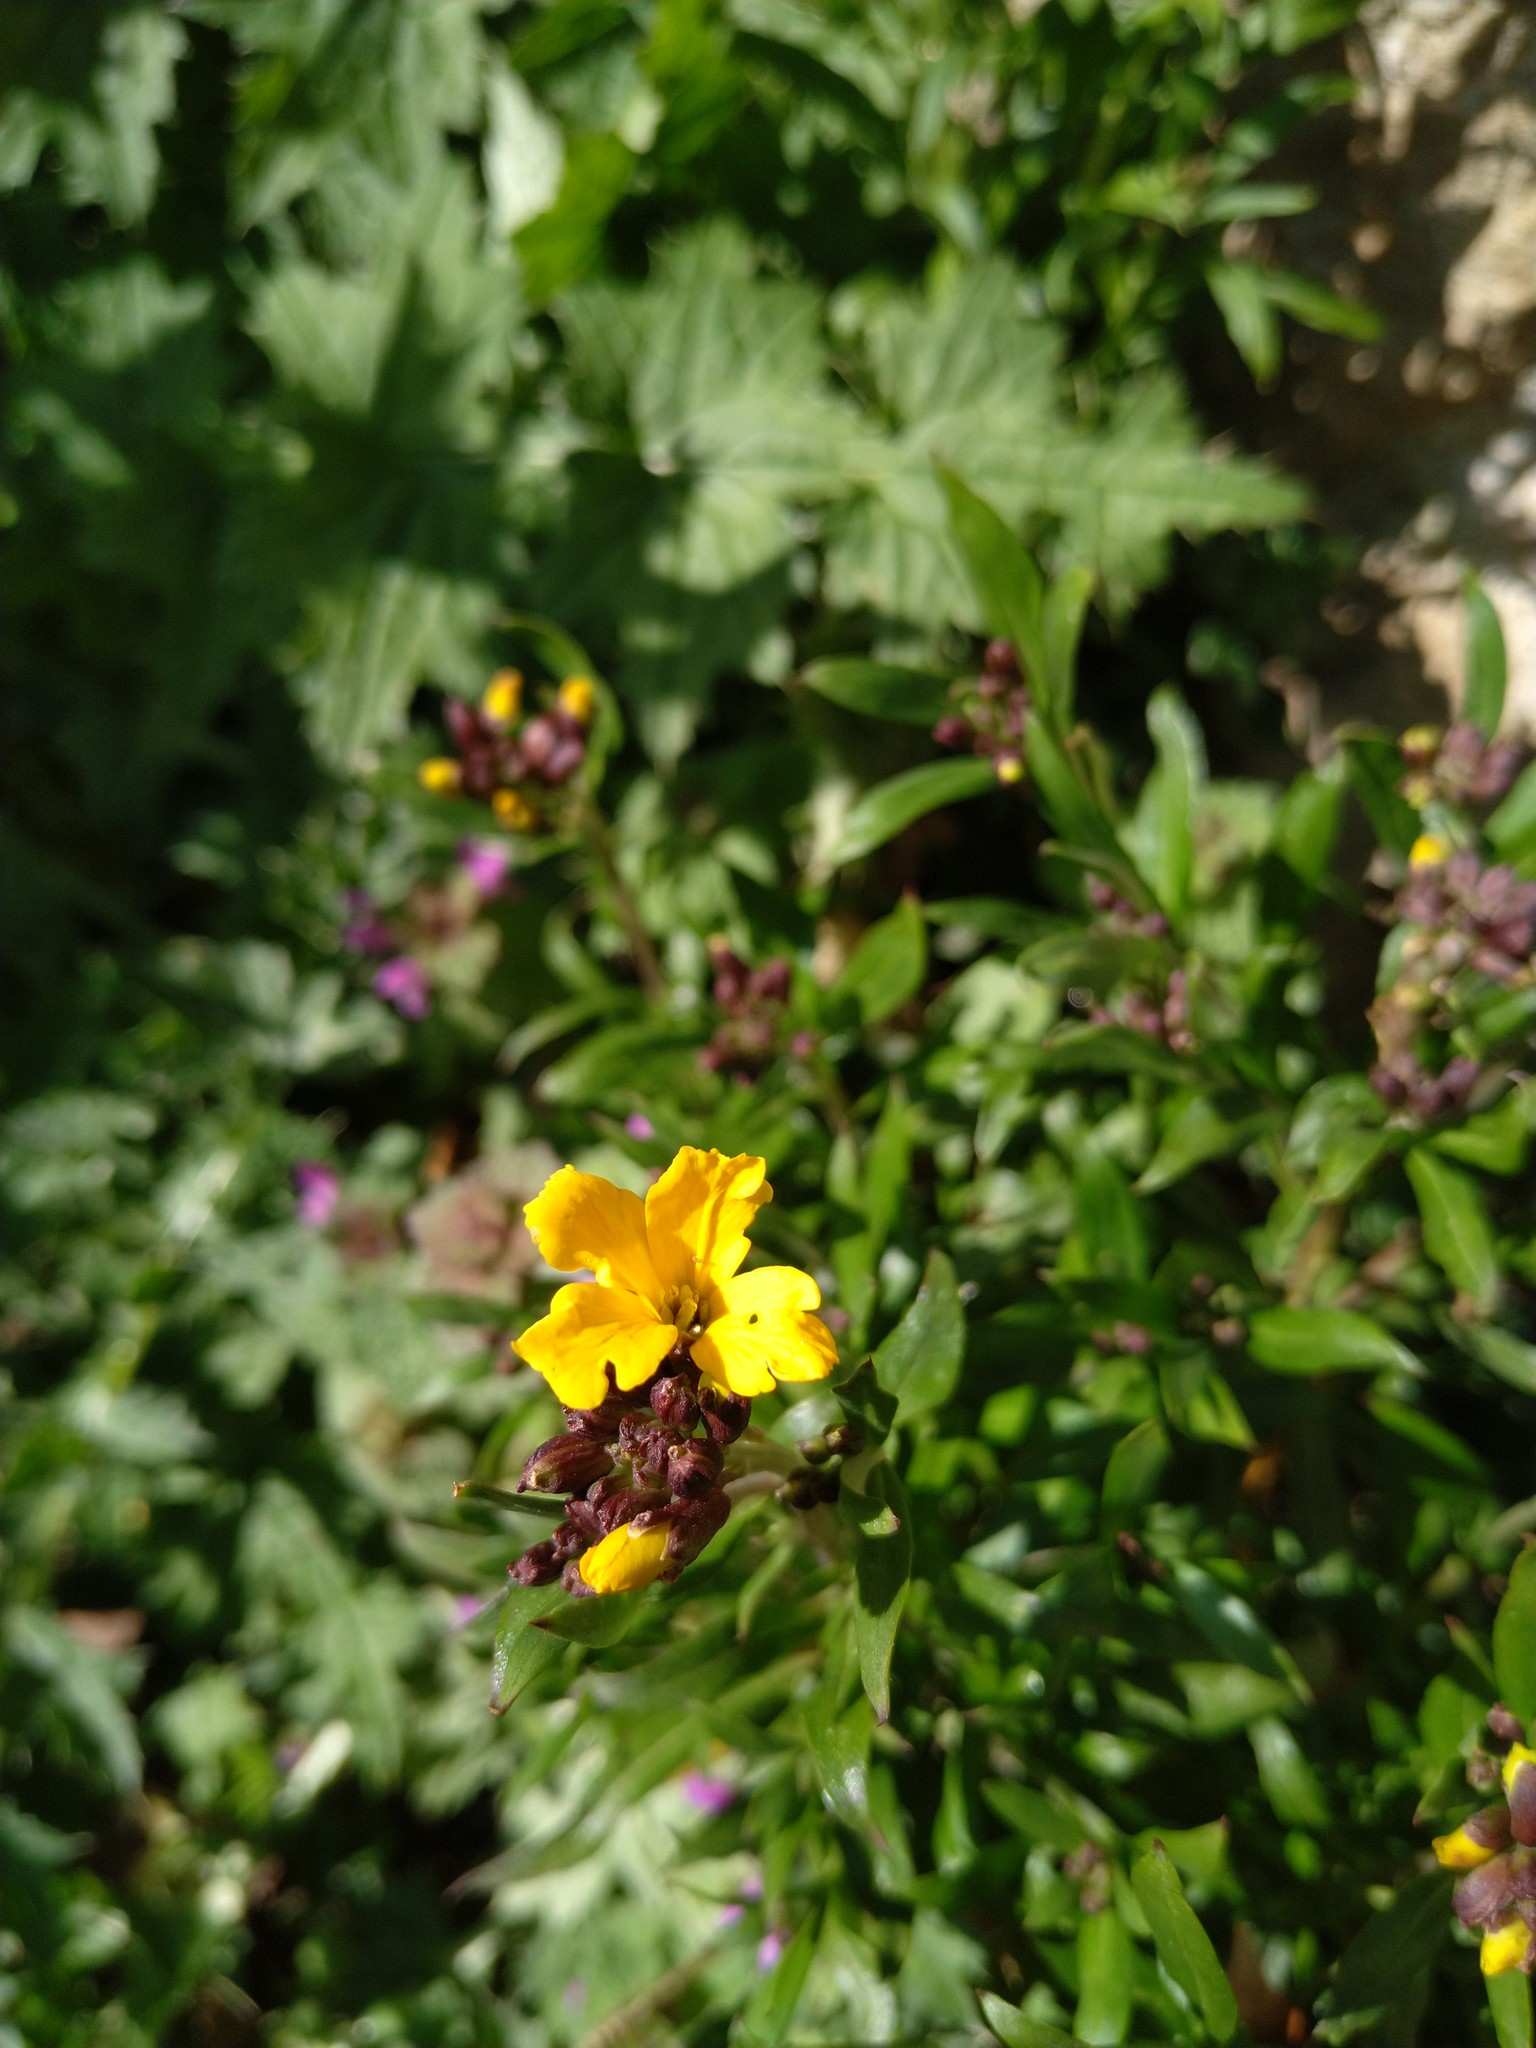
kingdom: Plantae
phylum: Tracheophyta
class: Magnoliopsida
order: Brassicales
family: Brassicaceae
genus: Erysimum
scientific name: Erysimum cheiri
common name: Wallflower
